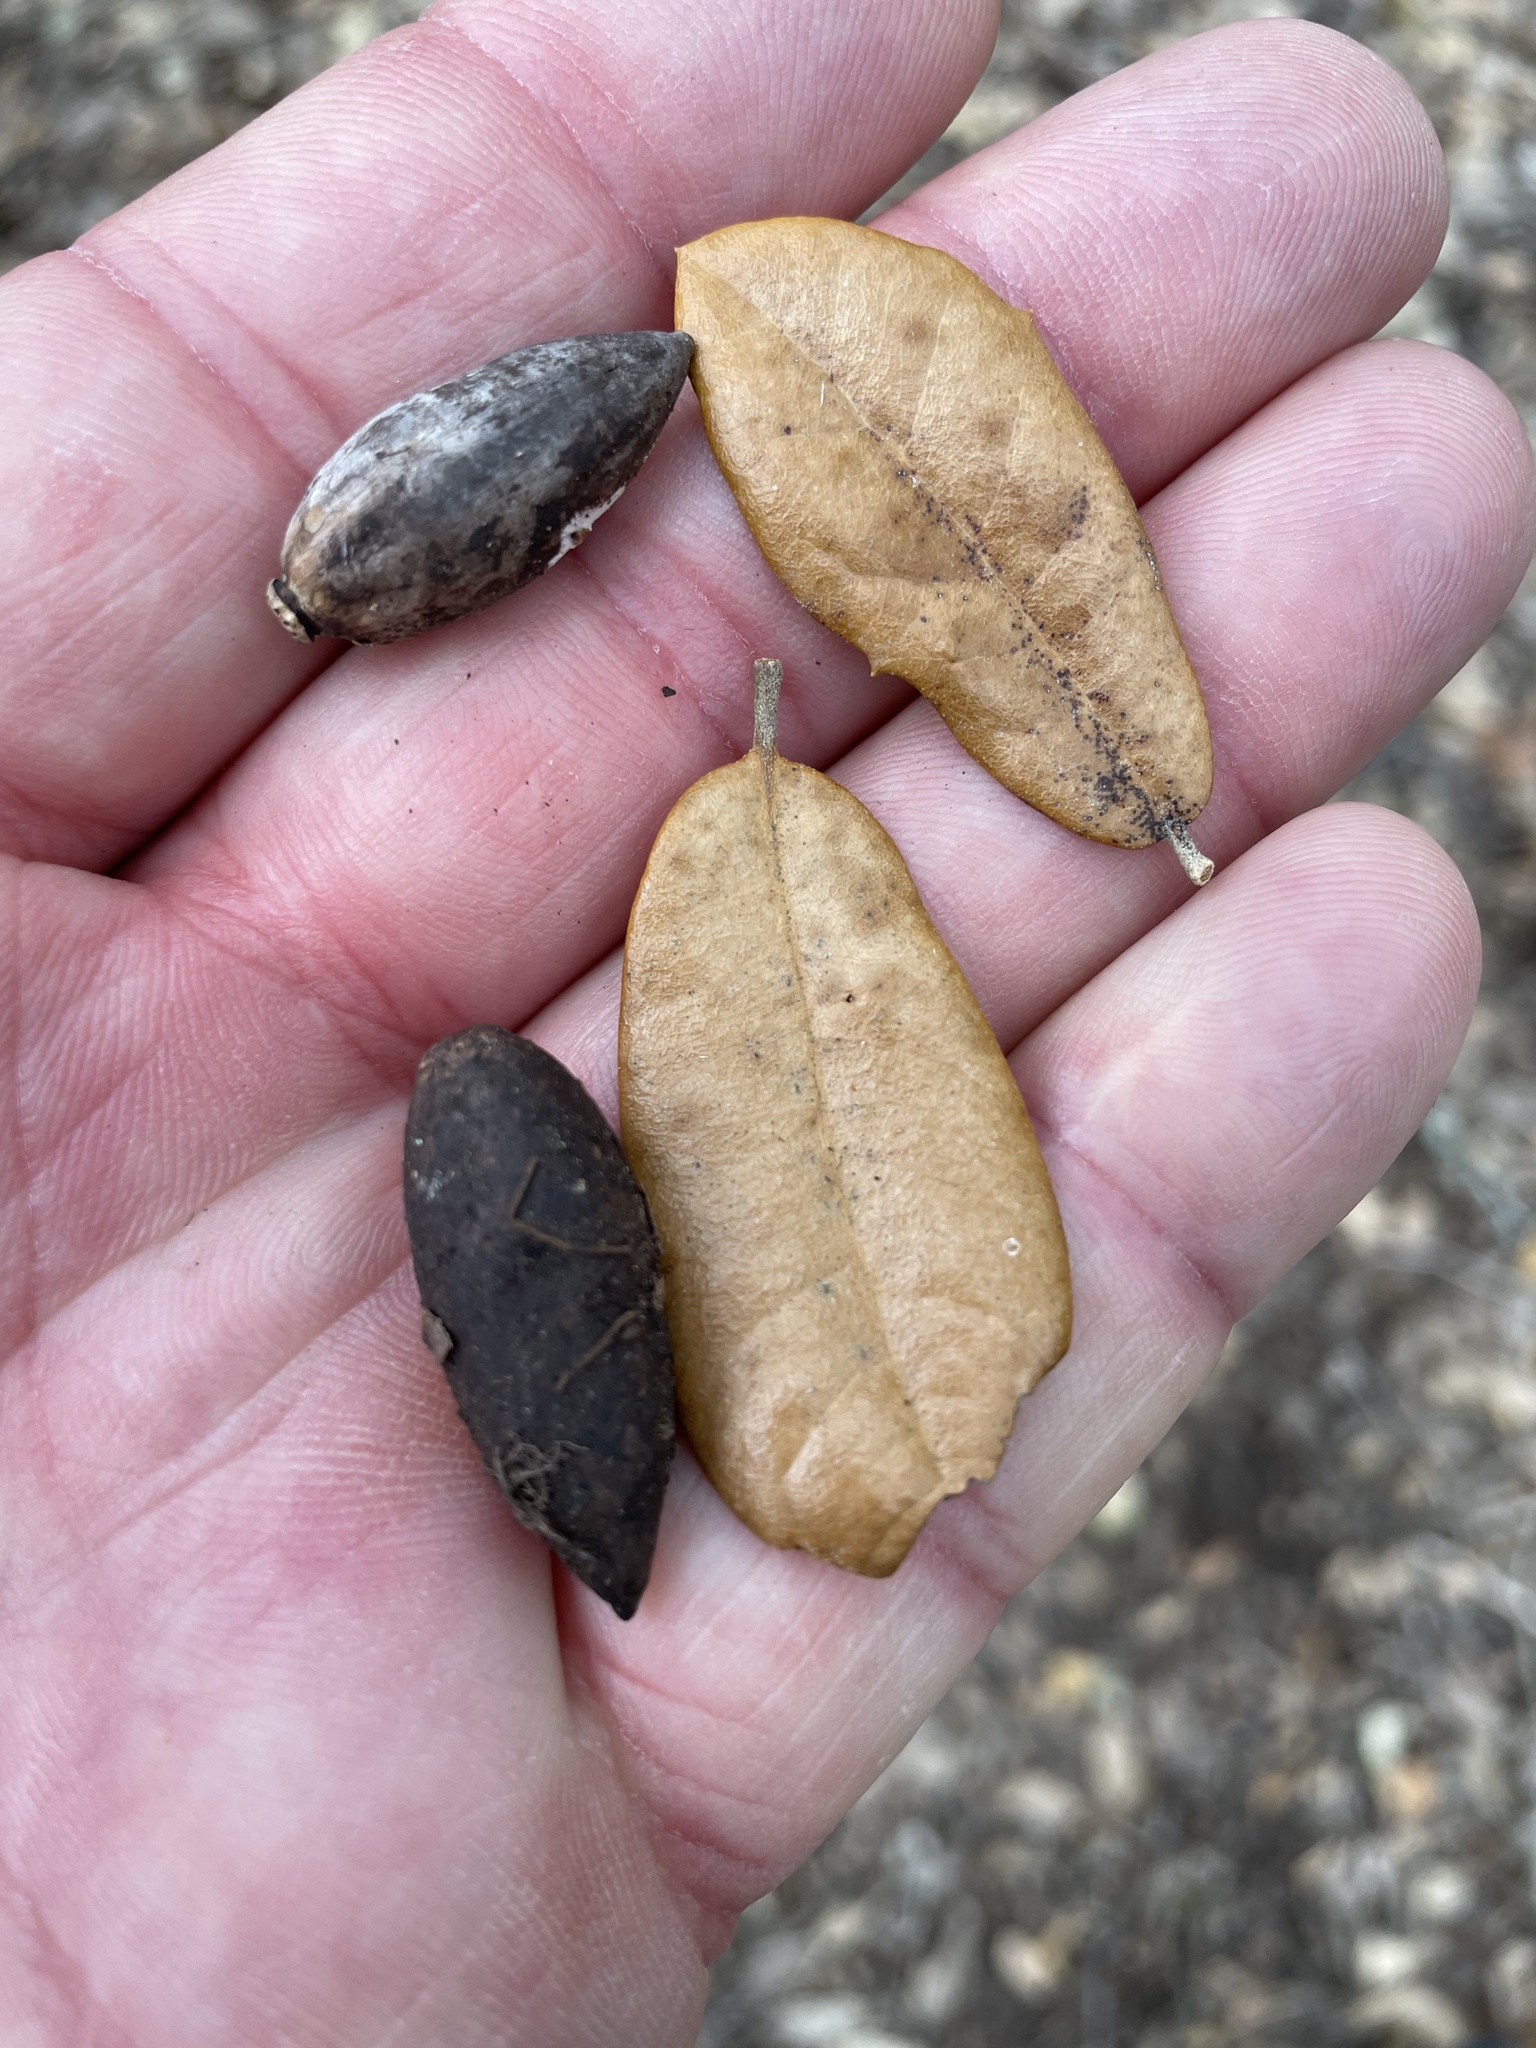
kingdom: Plantae
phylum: Tracheophyta
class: Magnoliopsida
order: Fagales
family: Fagaceae
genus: Quercus
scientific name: Quercus fusiformis
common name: Texas live oak
